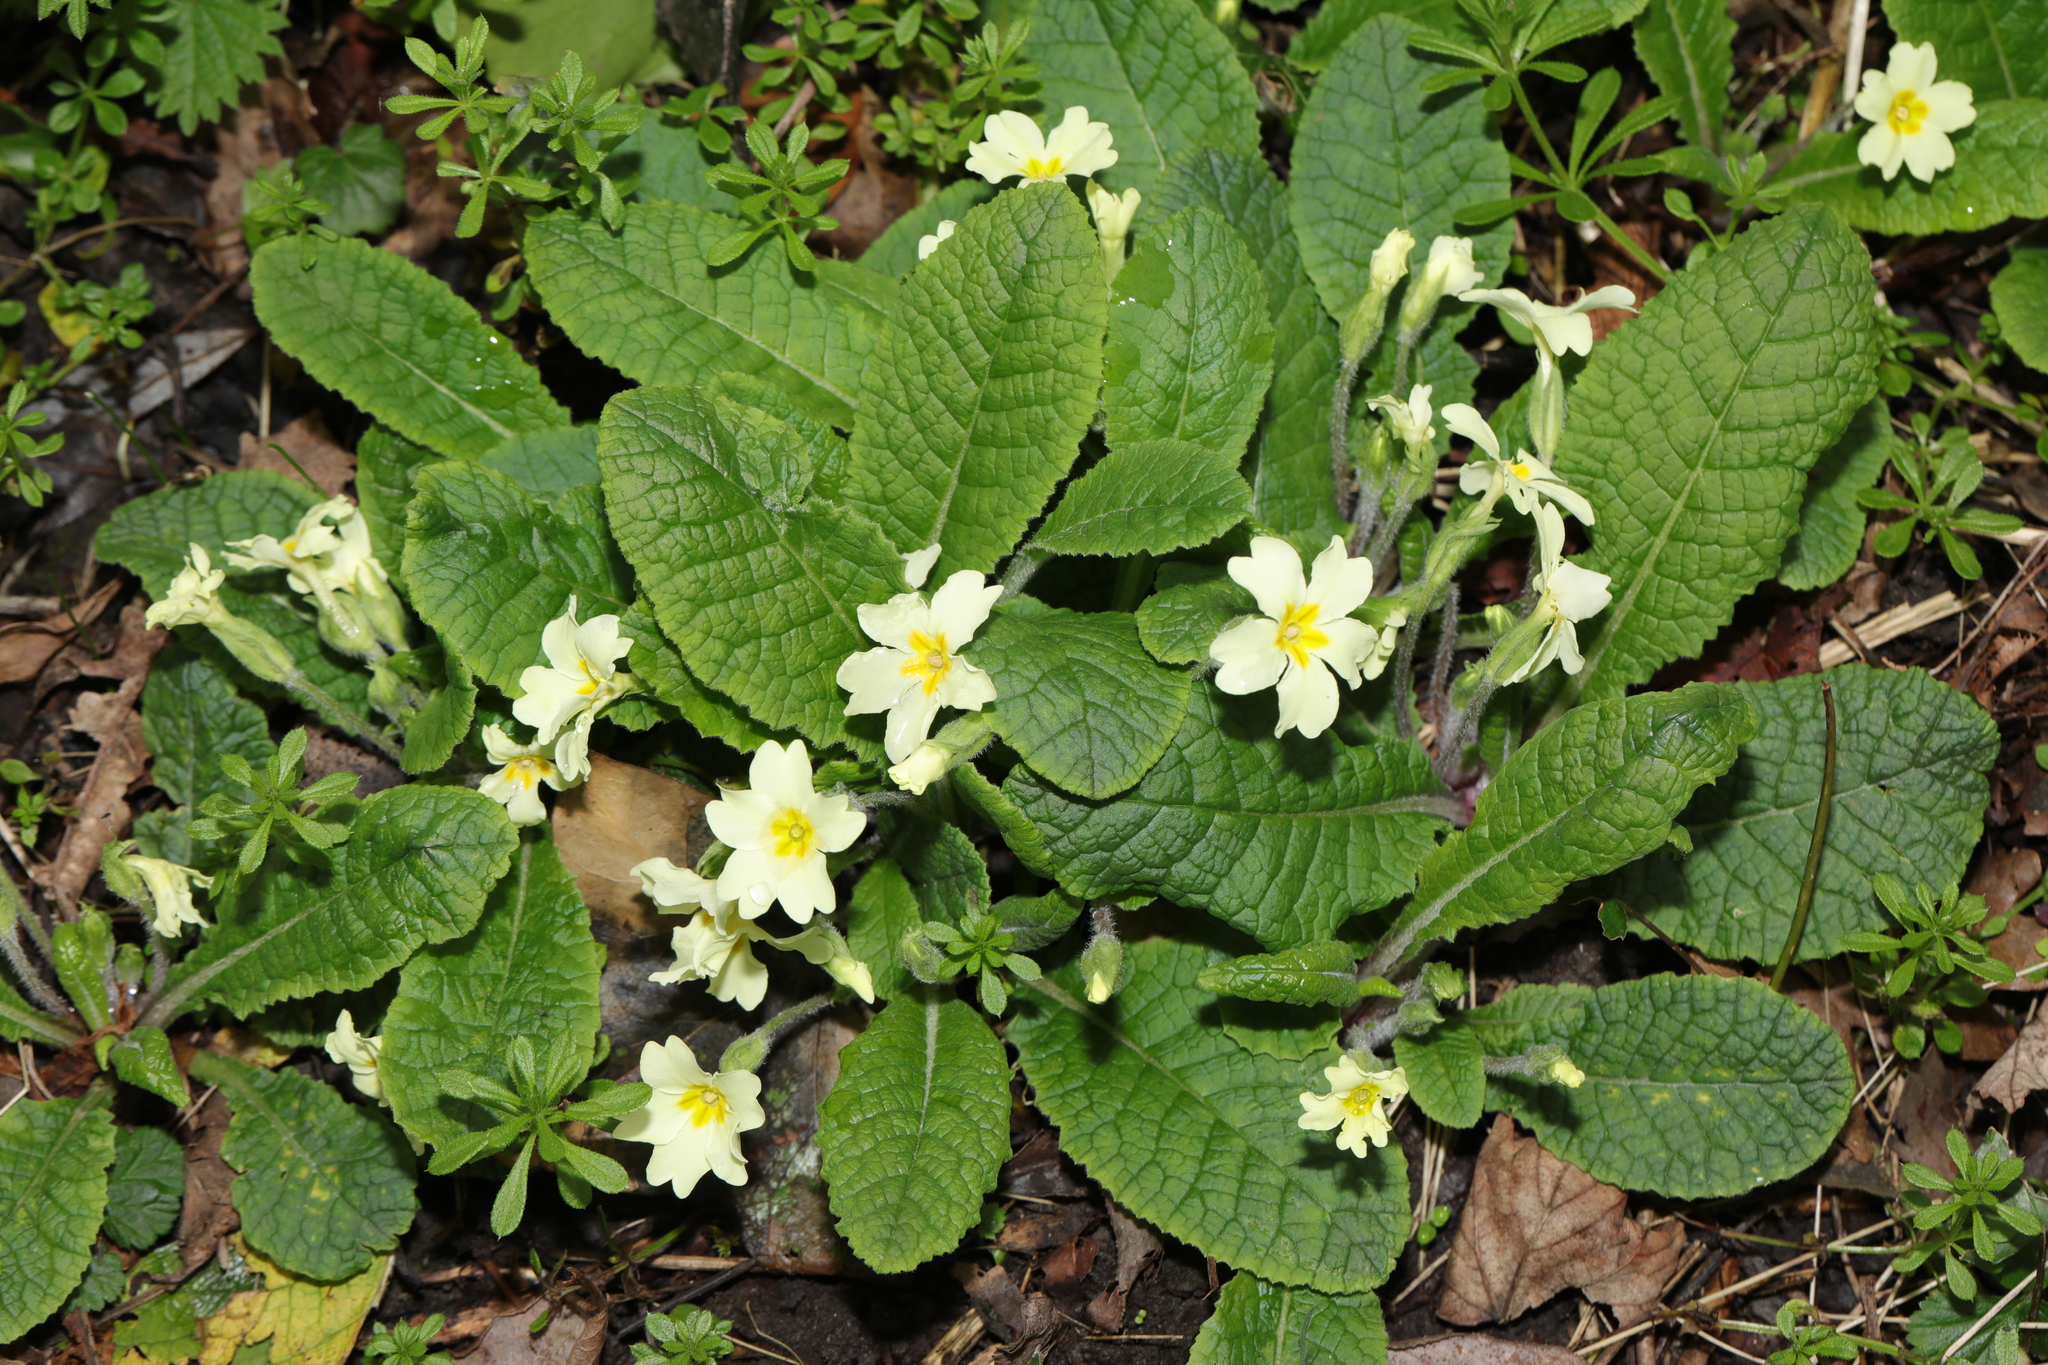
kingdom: Plantae
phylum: Tracheophyta
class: Magnoliopsida
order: Ericales
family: Primulaceae
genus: Primula
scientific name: Primula vulgaris
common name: Primrose
